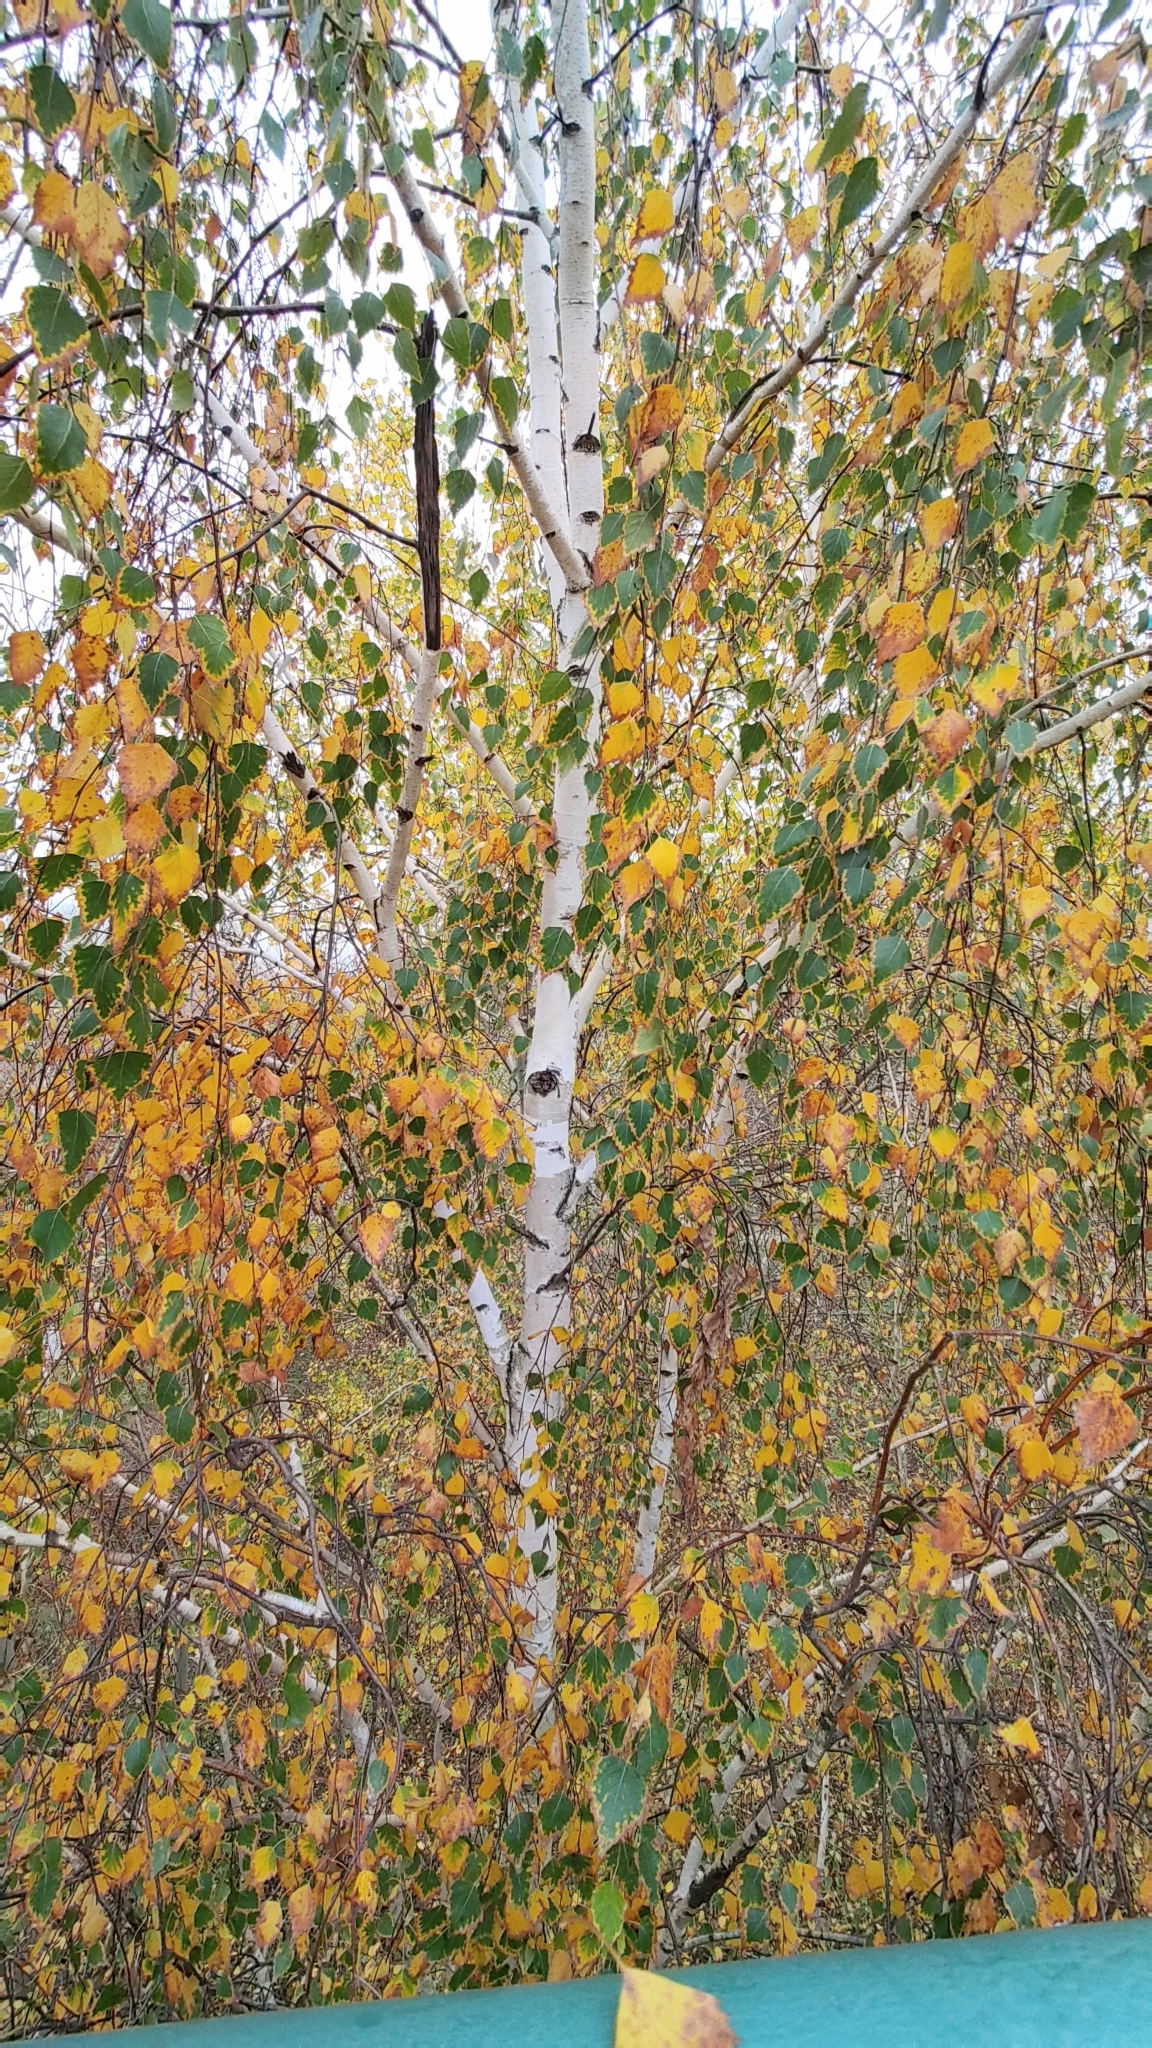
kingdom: Plantae
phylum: Tracheophyta
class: Magnoliopsida
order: Fagales
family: Betulaceae
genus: Betula
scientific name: Betula pendula
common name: Silver birch
